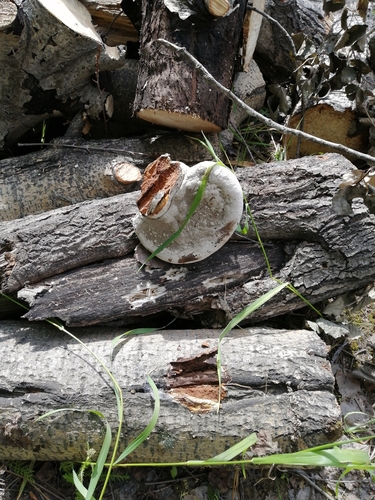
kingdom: Fungi
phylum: Basidiomycota
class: Agaricomycetes
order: Polyporales
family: Polyporaceae
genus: Fomes
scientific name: Fomes fomentarius
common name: Hoof fungus
